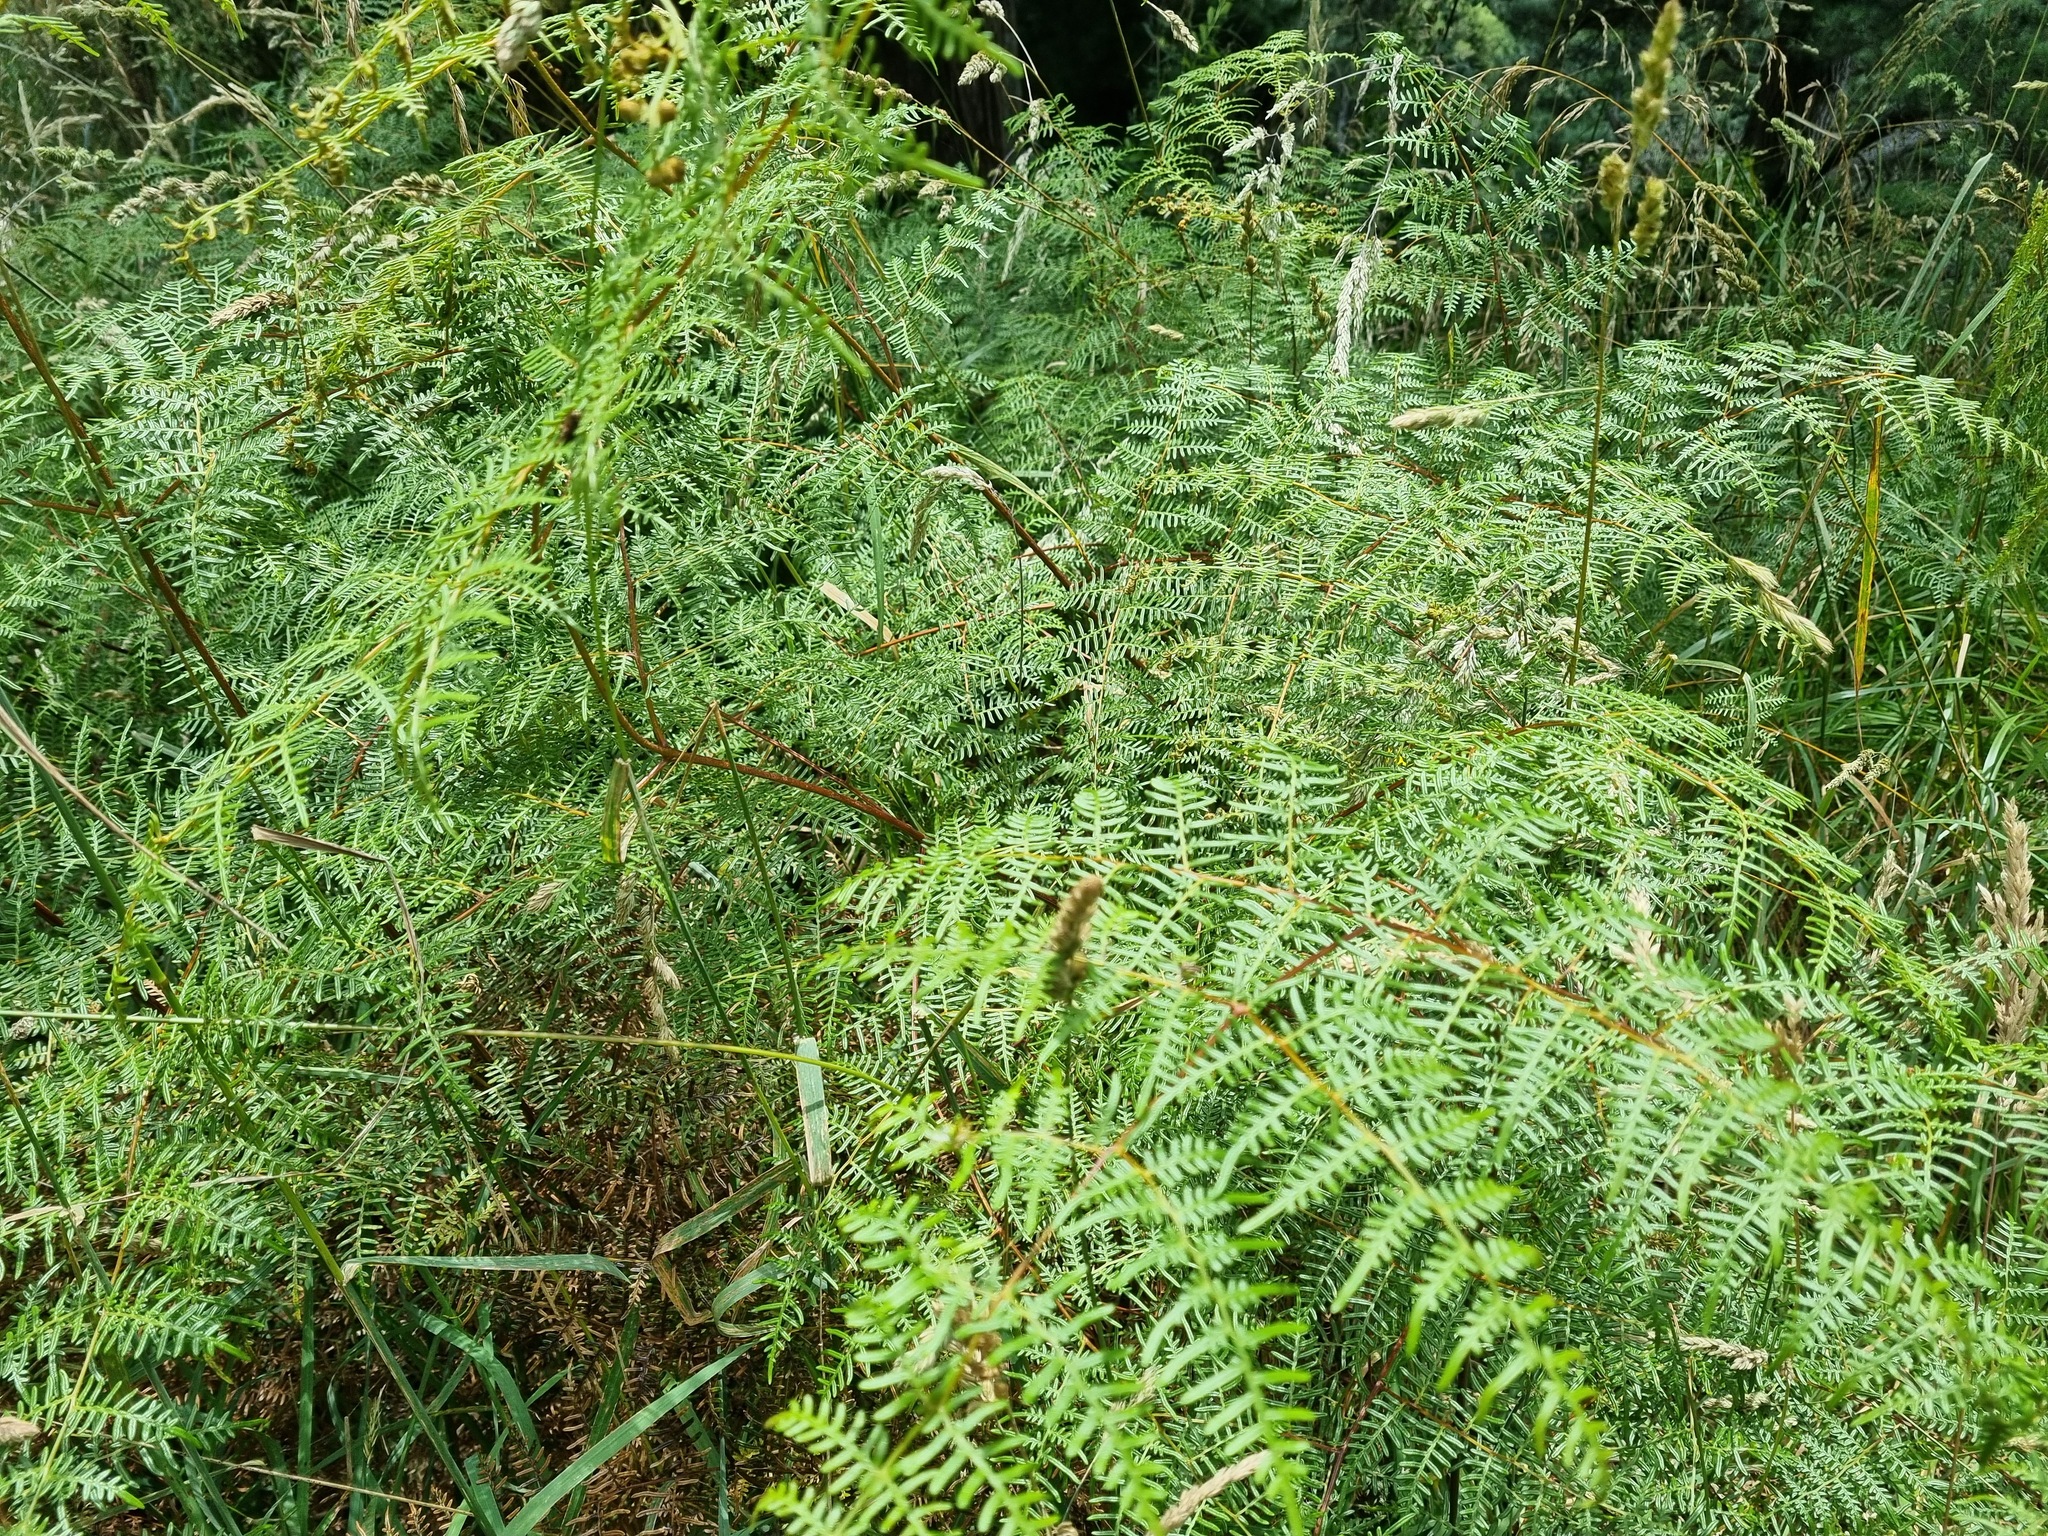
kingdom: Plantae
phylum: Tracheophyta
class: Polypodiopsida
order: Polypodiales
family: Dennstaedtiaceae
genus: Pteridium
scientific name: Pteridium esculentum
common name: Bracken fern
